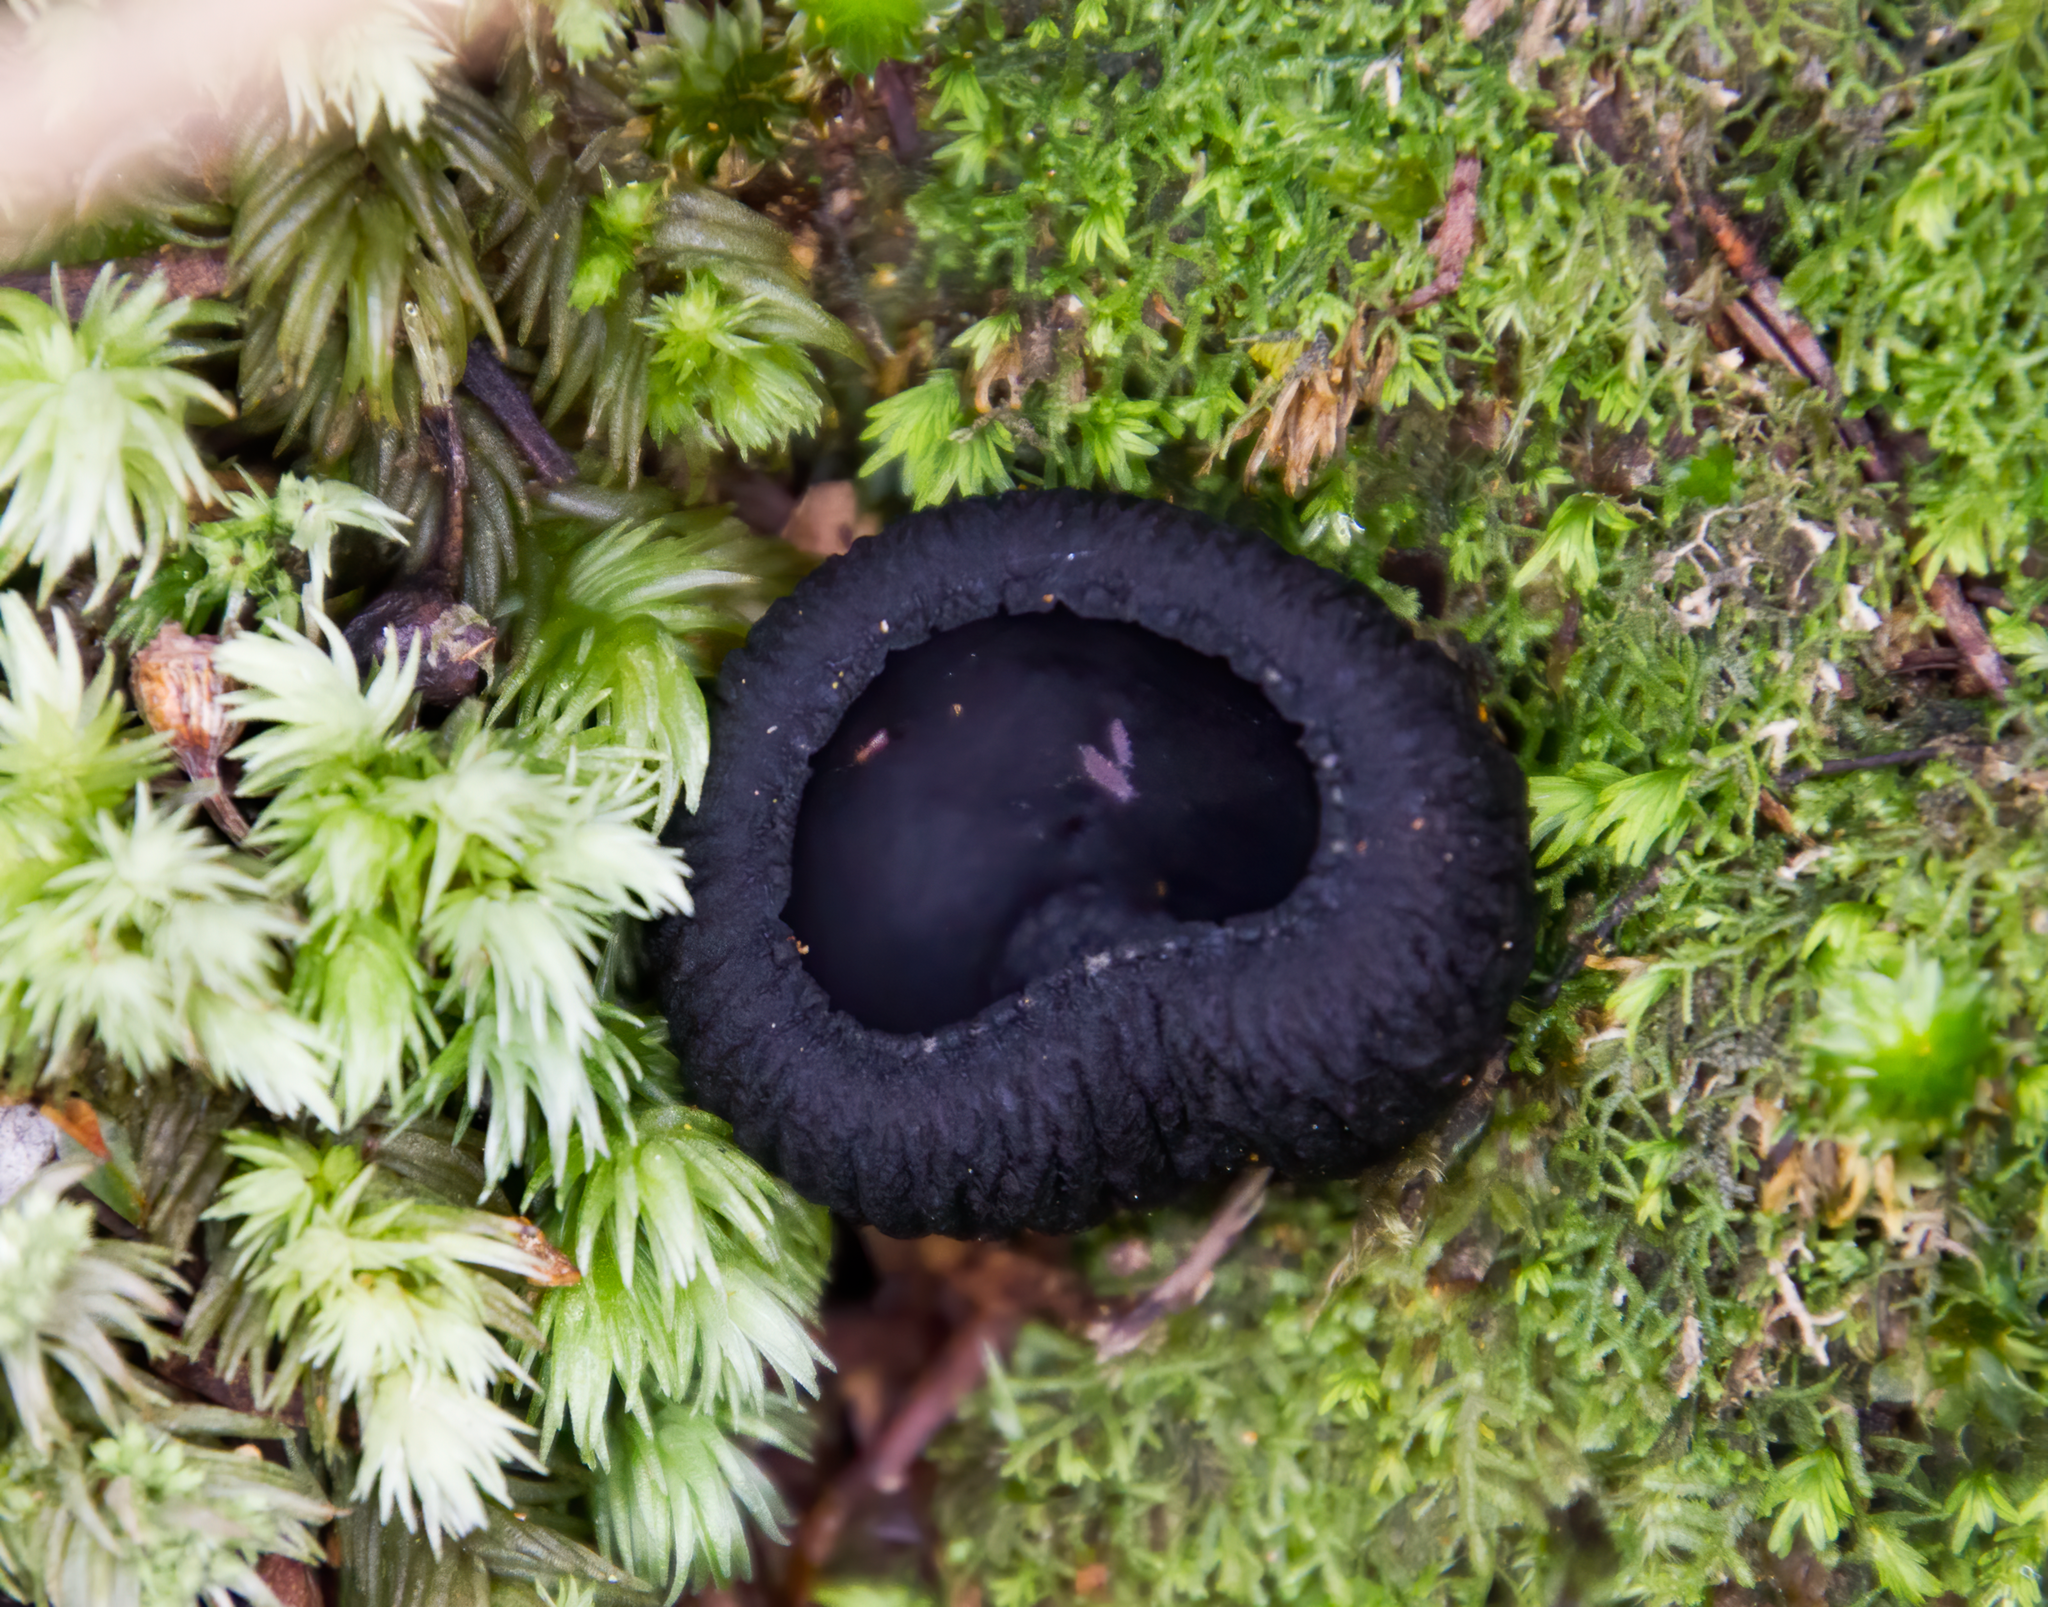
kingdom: Fungi
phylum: Ascomycota
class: Pezizomycetes
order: Pezizales
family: Sarcosomataceae
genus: Plectania
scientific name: Plectania rhytidia
